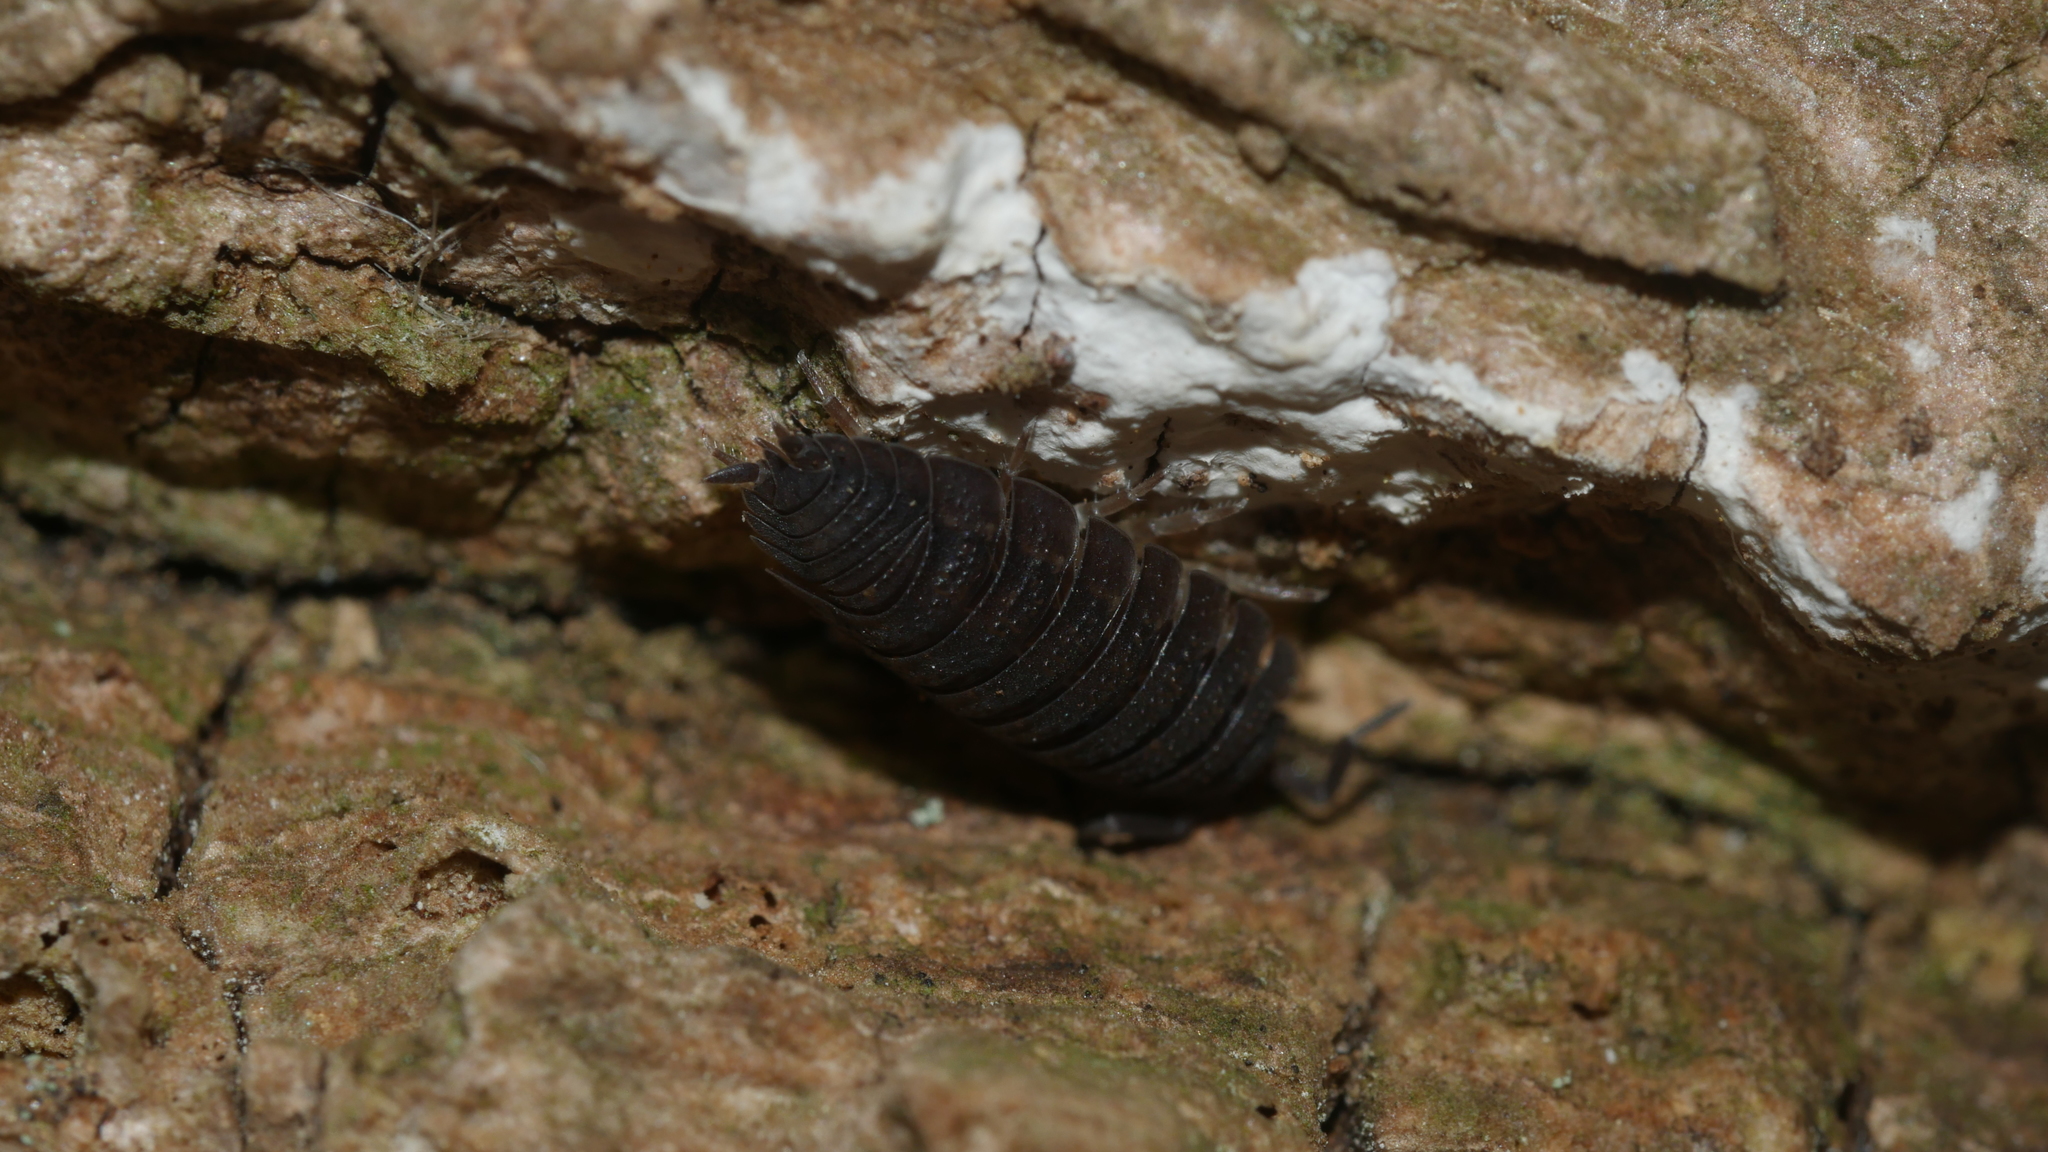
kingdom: Animalia
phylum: Arthropoda
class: Malacostraca
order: Isopoda
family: Porcellionidae
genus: Porcellio
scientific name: Porcellio scaber
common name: Common rough woodlouse
